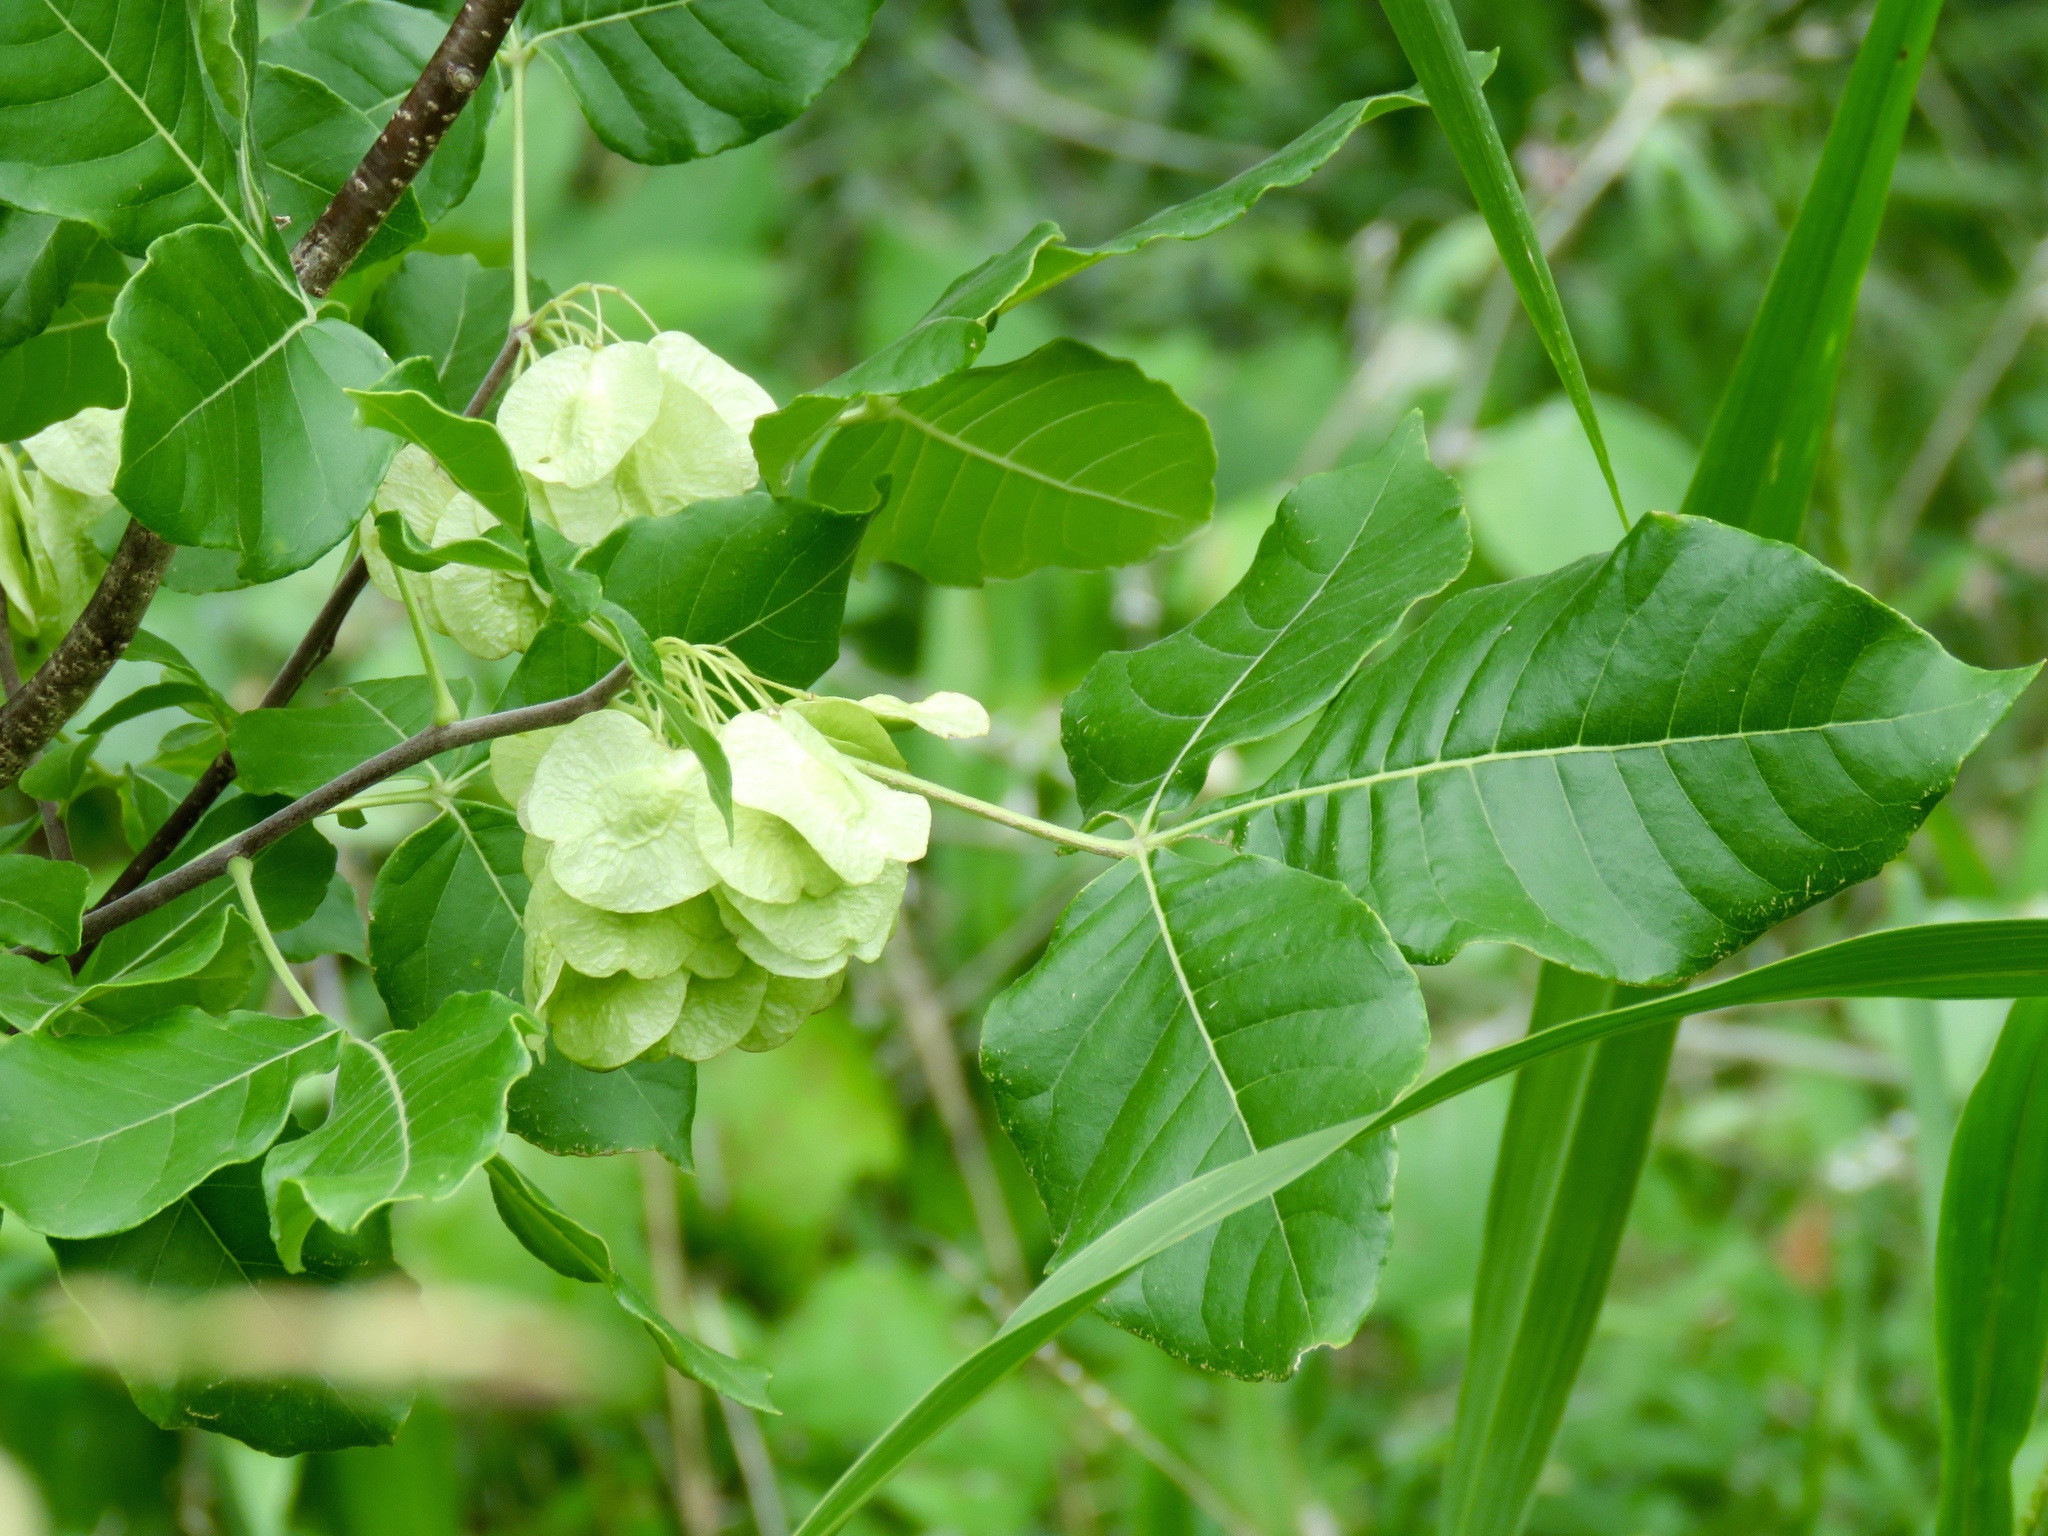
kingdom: Plantae
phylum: Tracheophyta
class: Magnoliopsida
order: Sapindales
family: Rutaceae
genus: Ptelea
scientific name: Ptelea trifoliata
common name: Common hop-tree
